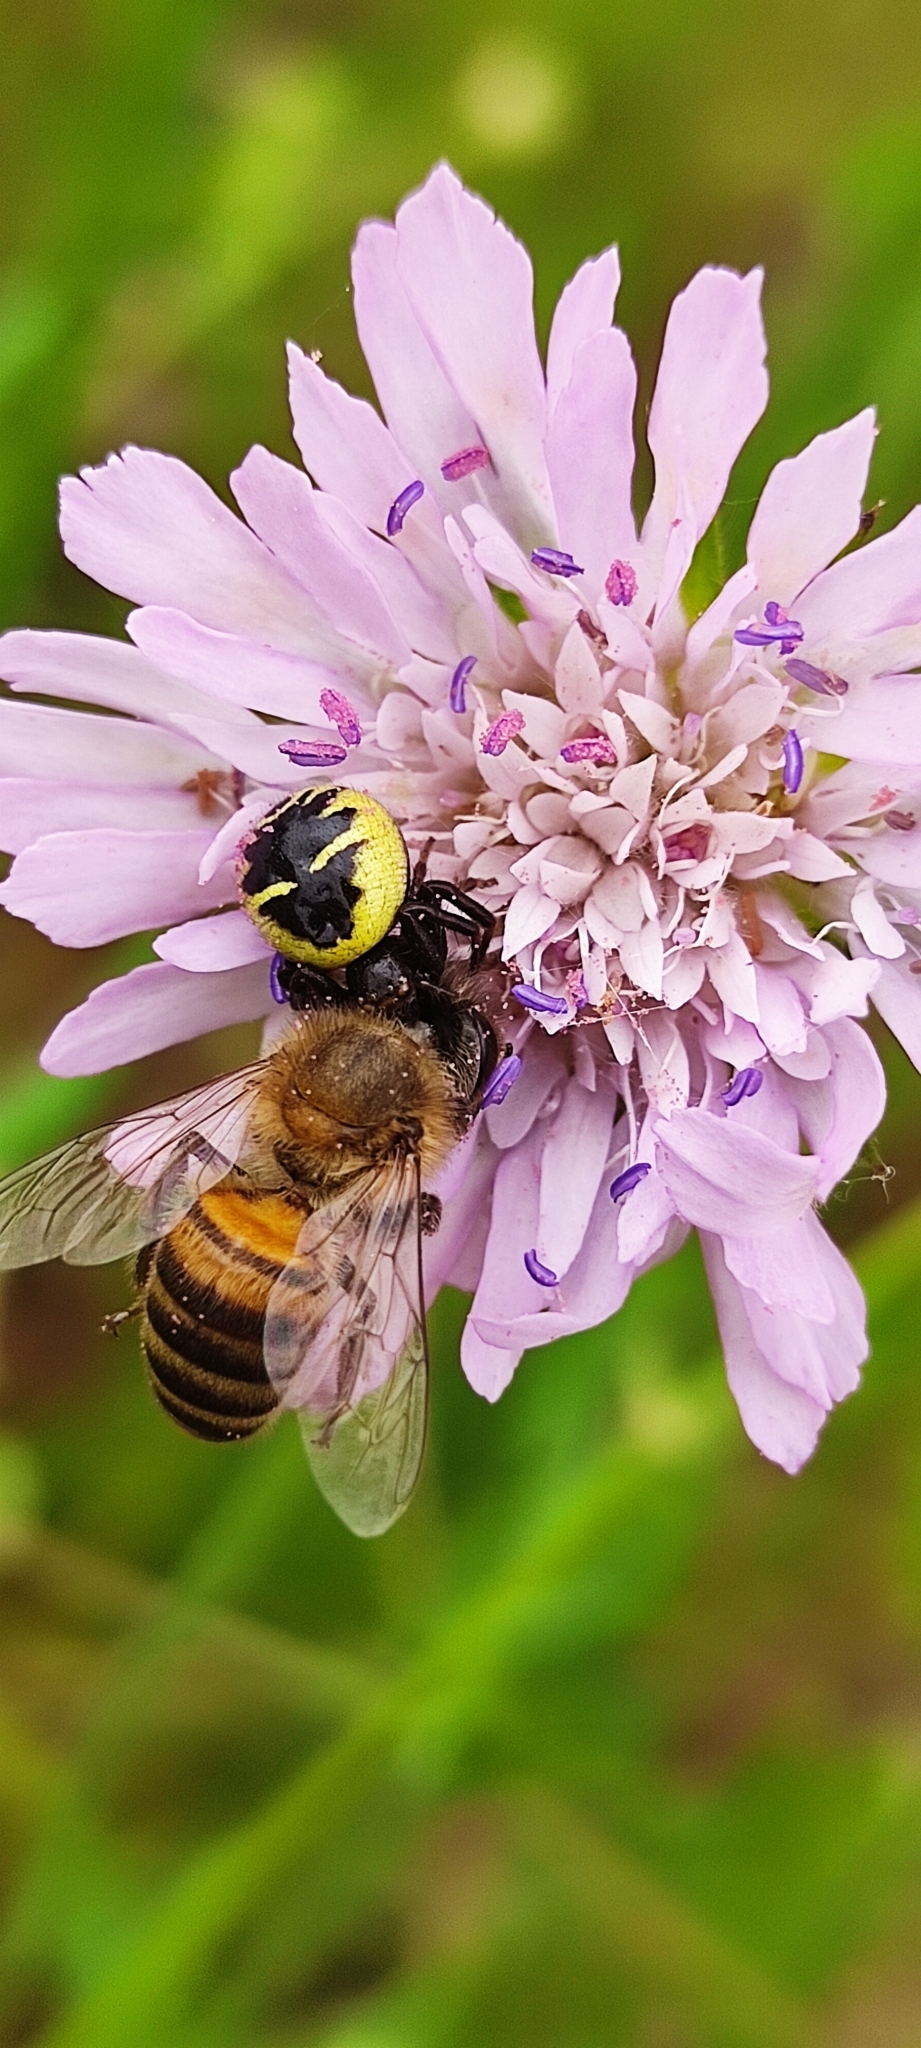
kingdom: Animalia
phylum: Arthropoda
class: Arachnida
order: Araneae
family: Thomisidae
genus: Synema
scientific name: Synema globosum
